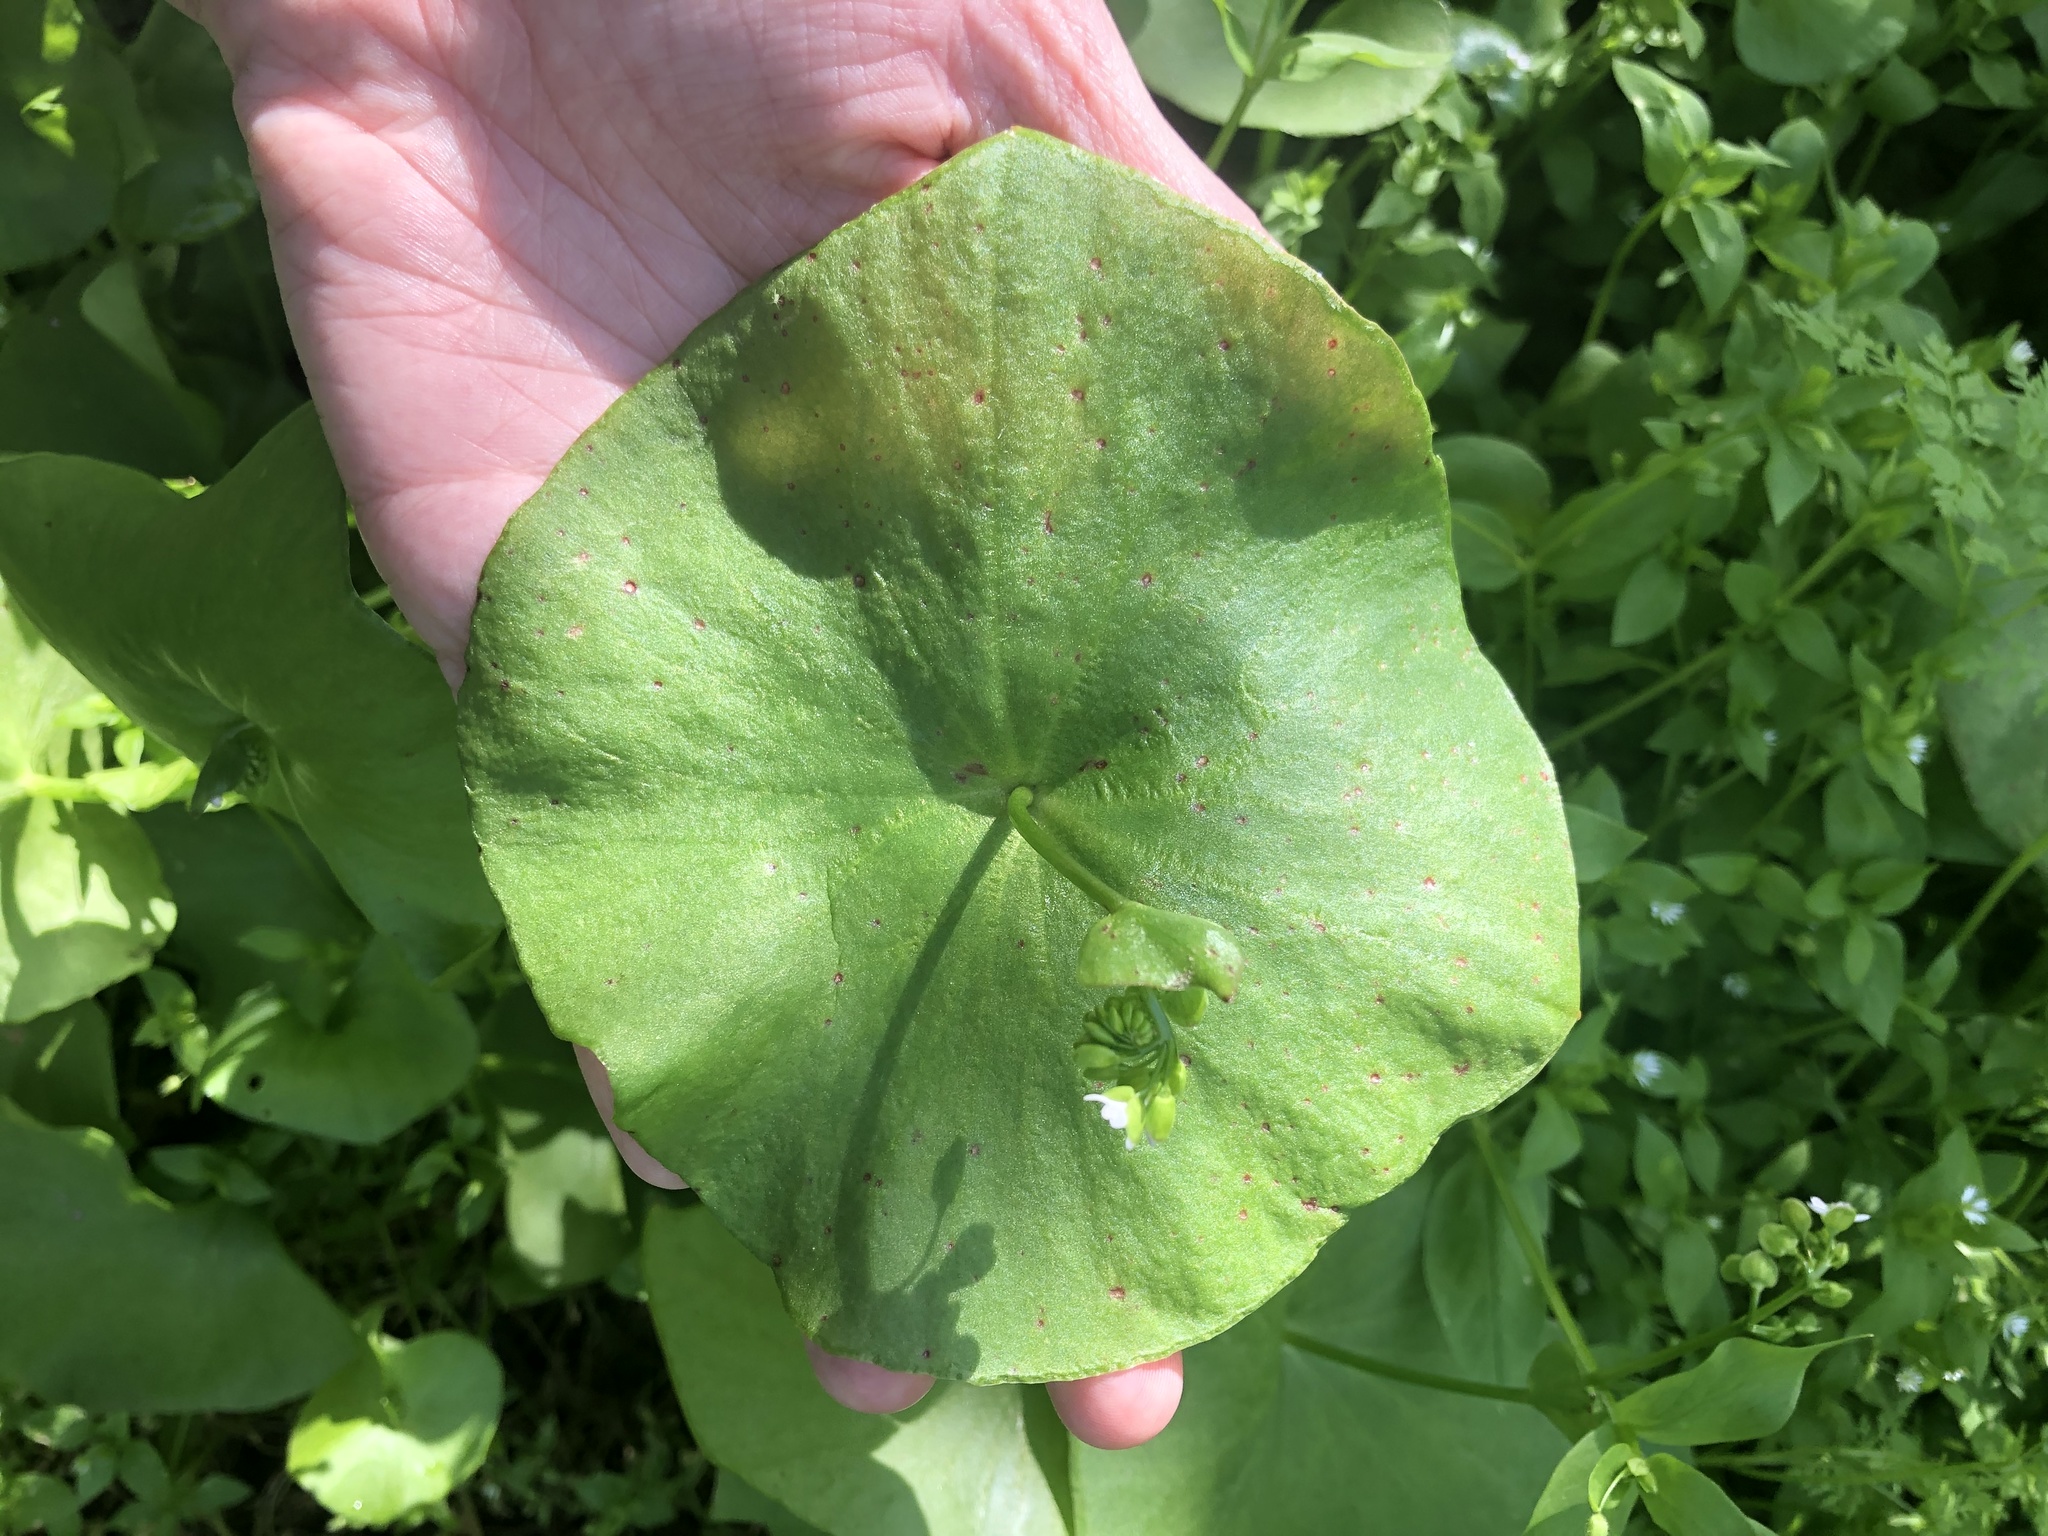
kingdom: Plantae
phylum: Tracheophyta
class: Magnoliopsida
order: Caryophyllales
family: Montiaceae
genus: Claytonia
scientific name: Claytonia perfoliata
